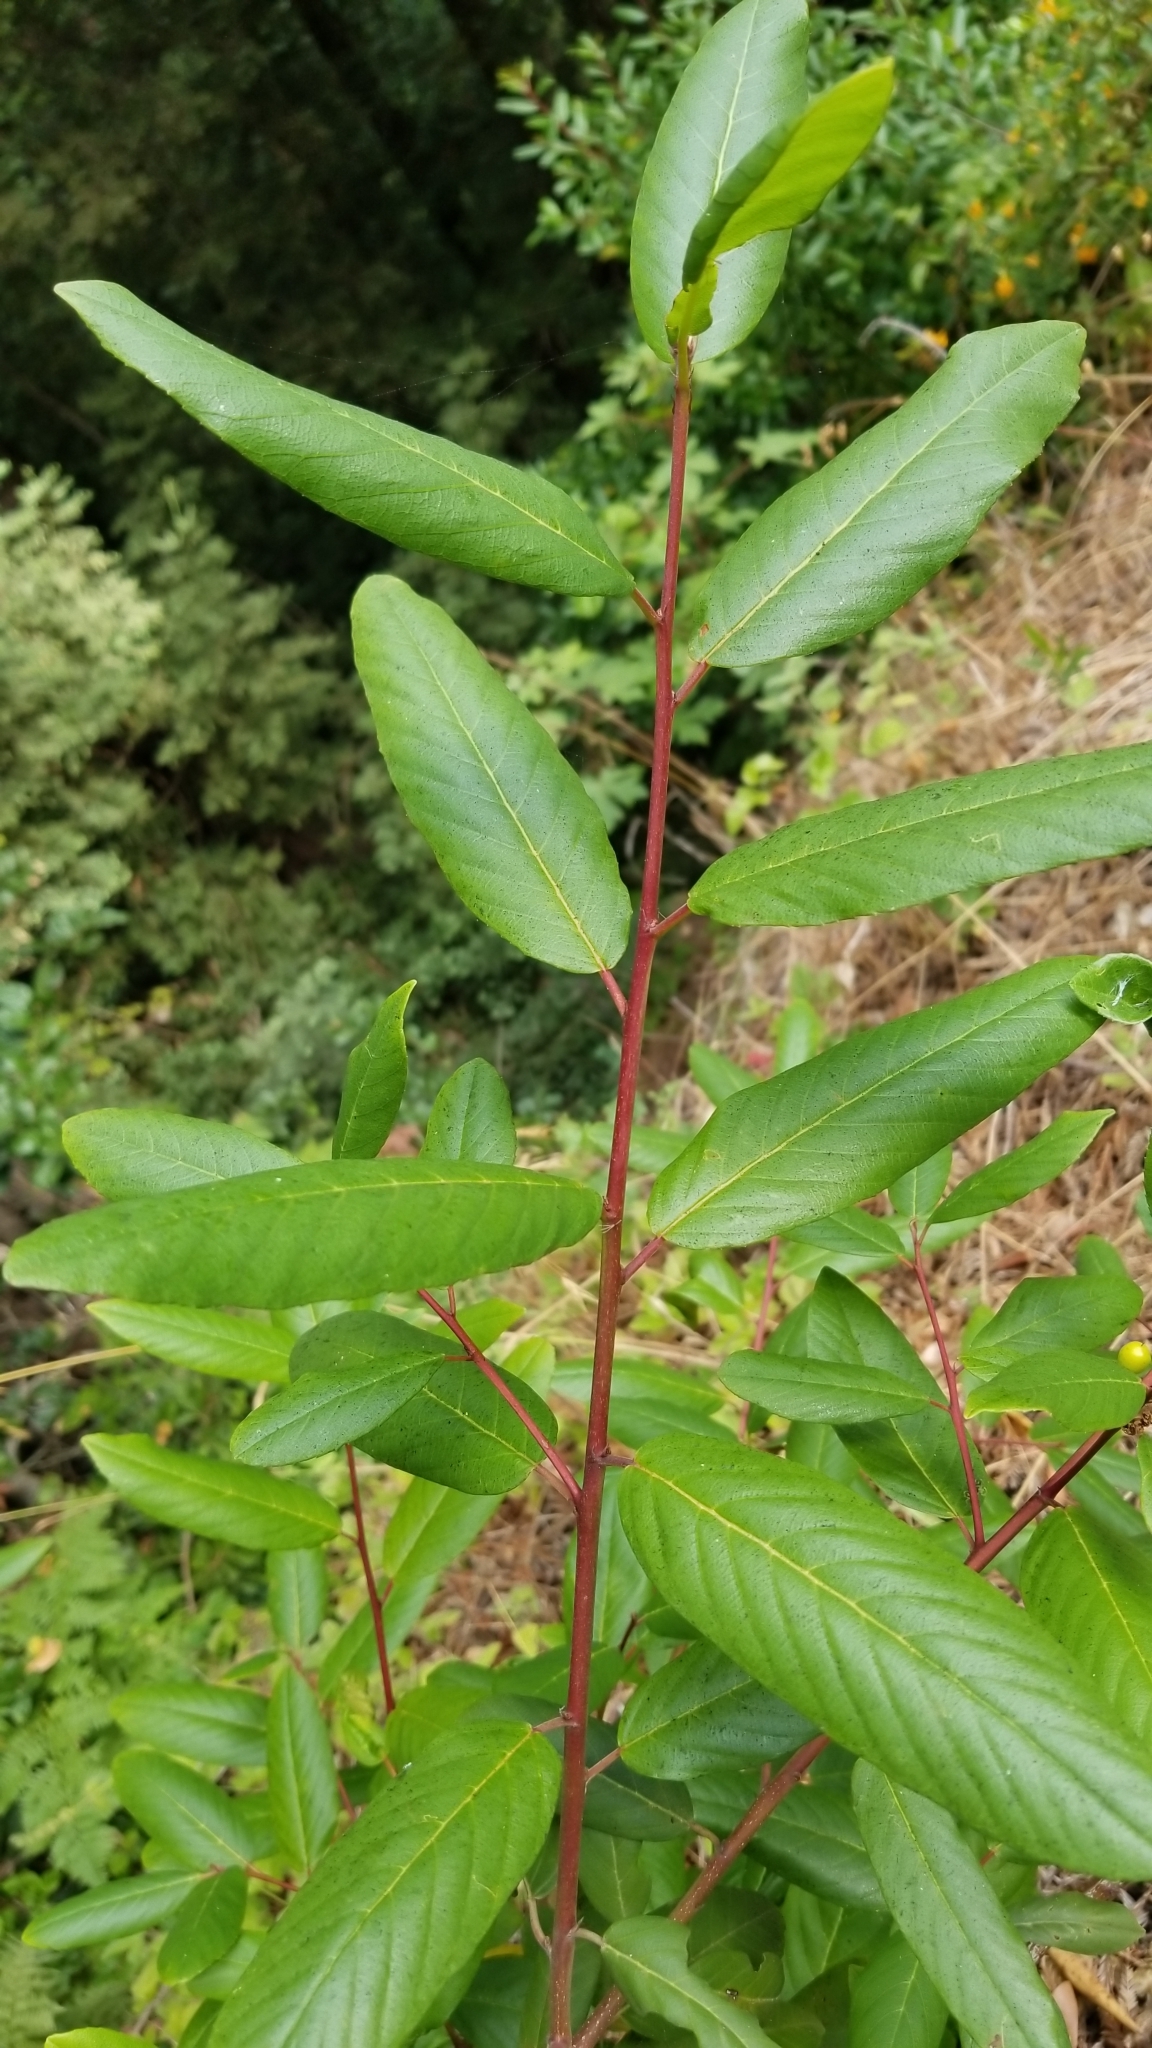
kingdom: Plantae
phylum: Tracheophyta
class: Magnoliopsida
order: Rosales
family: Rhamnaceae
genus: Frangula
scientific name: Frangula californica
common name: California buckthorn
